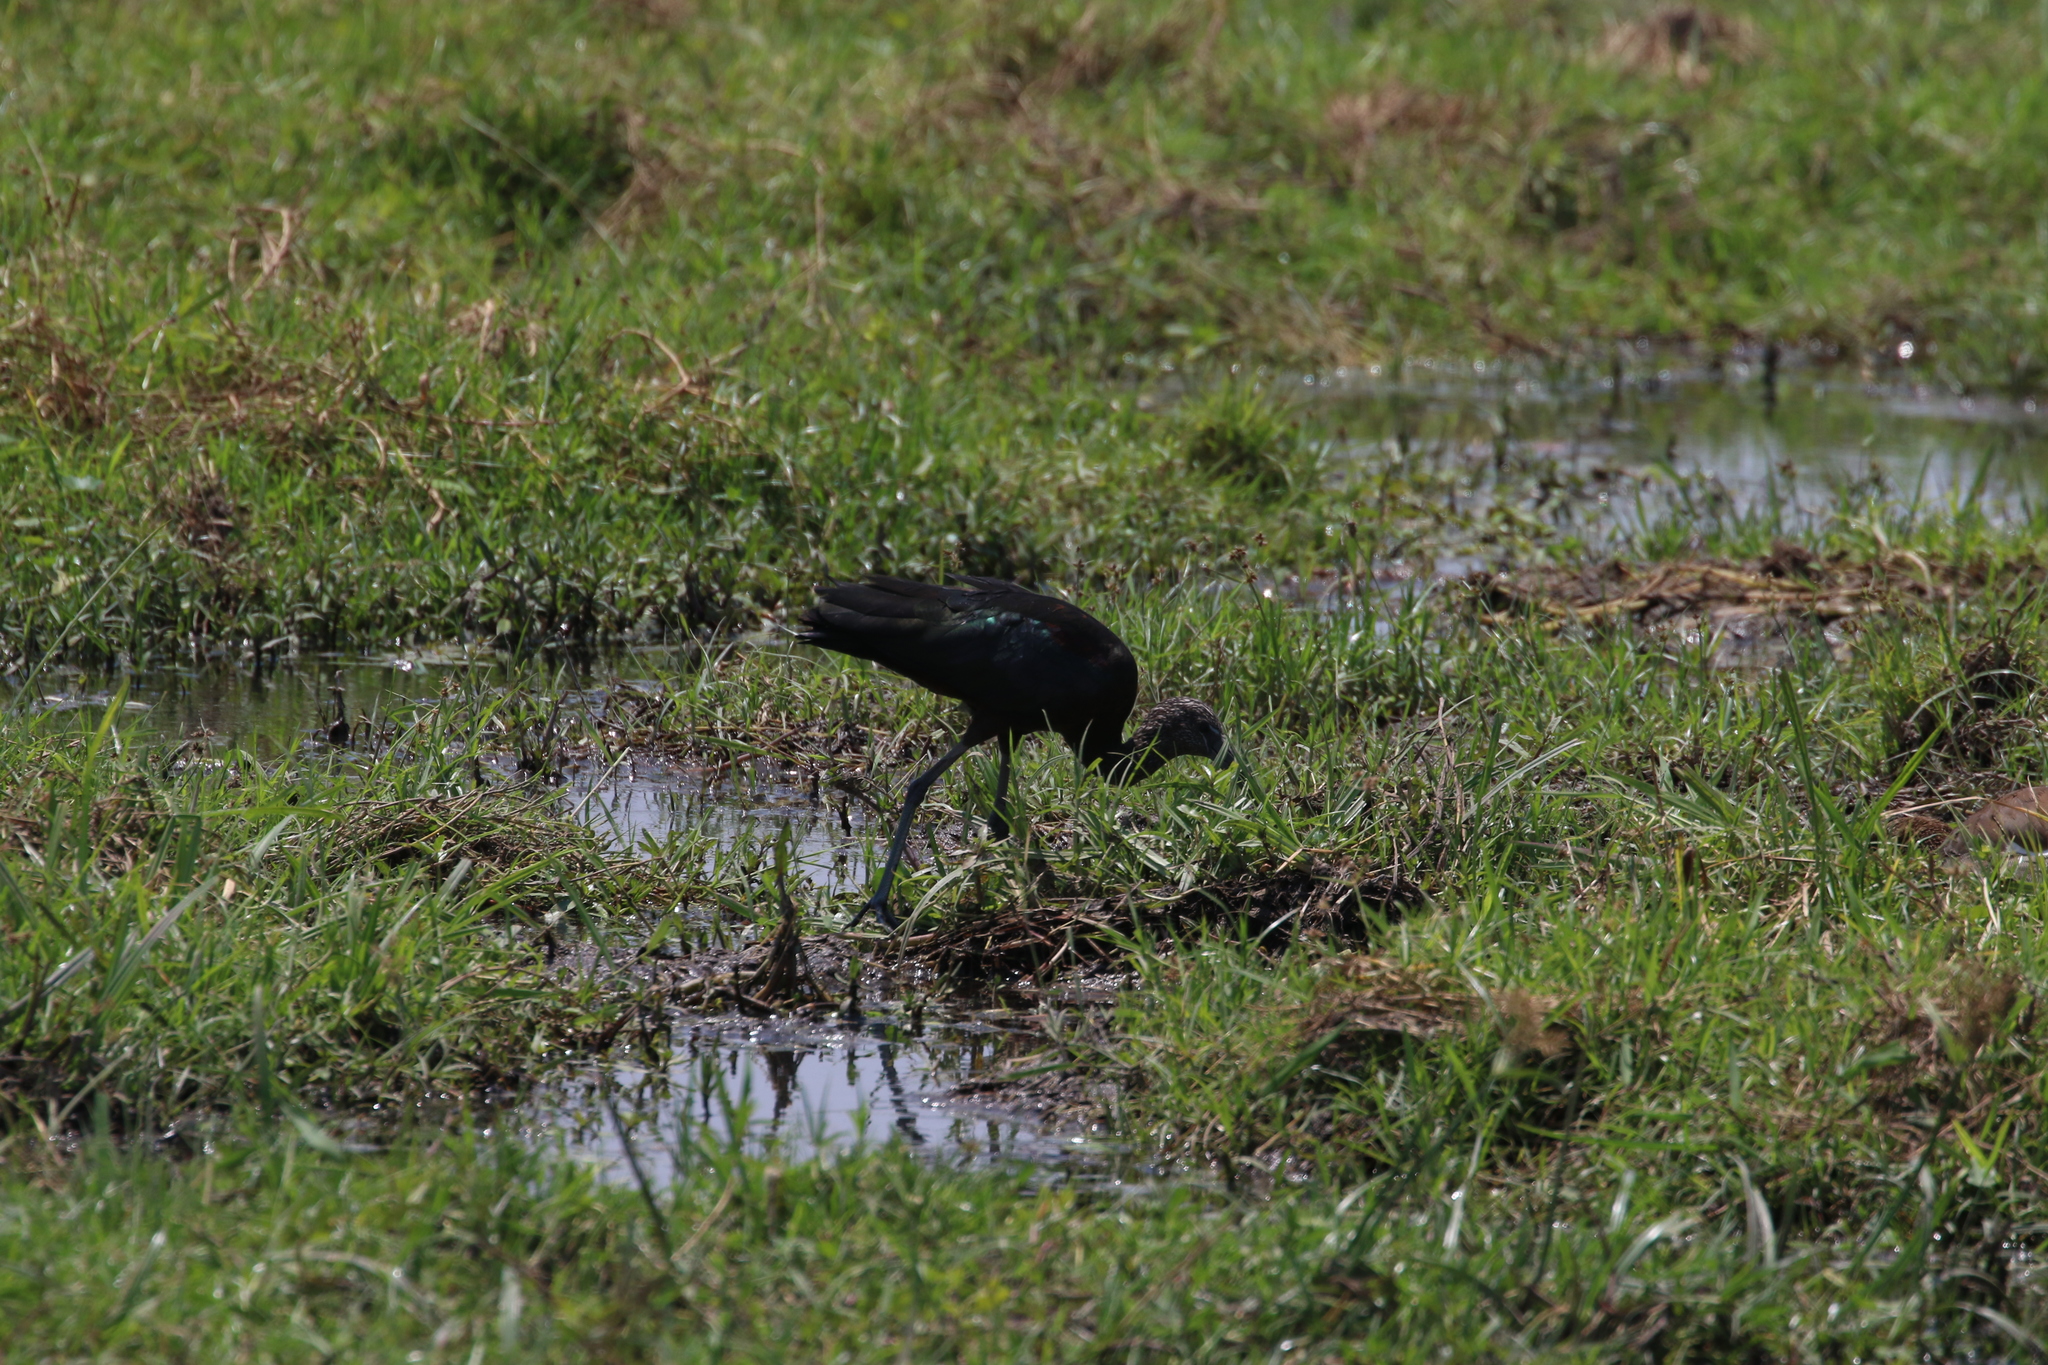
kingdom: Animalia
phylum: Chordata
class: Aves
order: Pelecaniformes
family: Threskiornithidae
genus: Plegadis
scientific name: Plegadis falcinellus
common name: Glossy ibis
